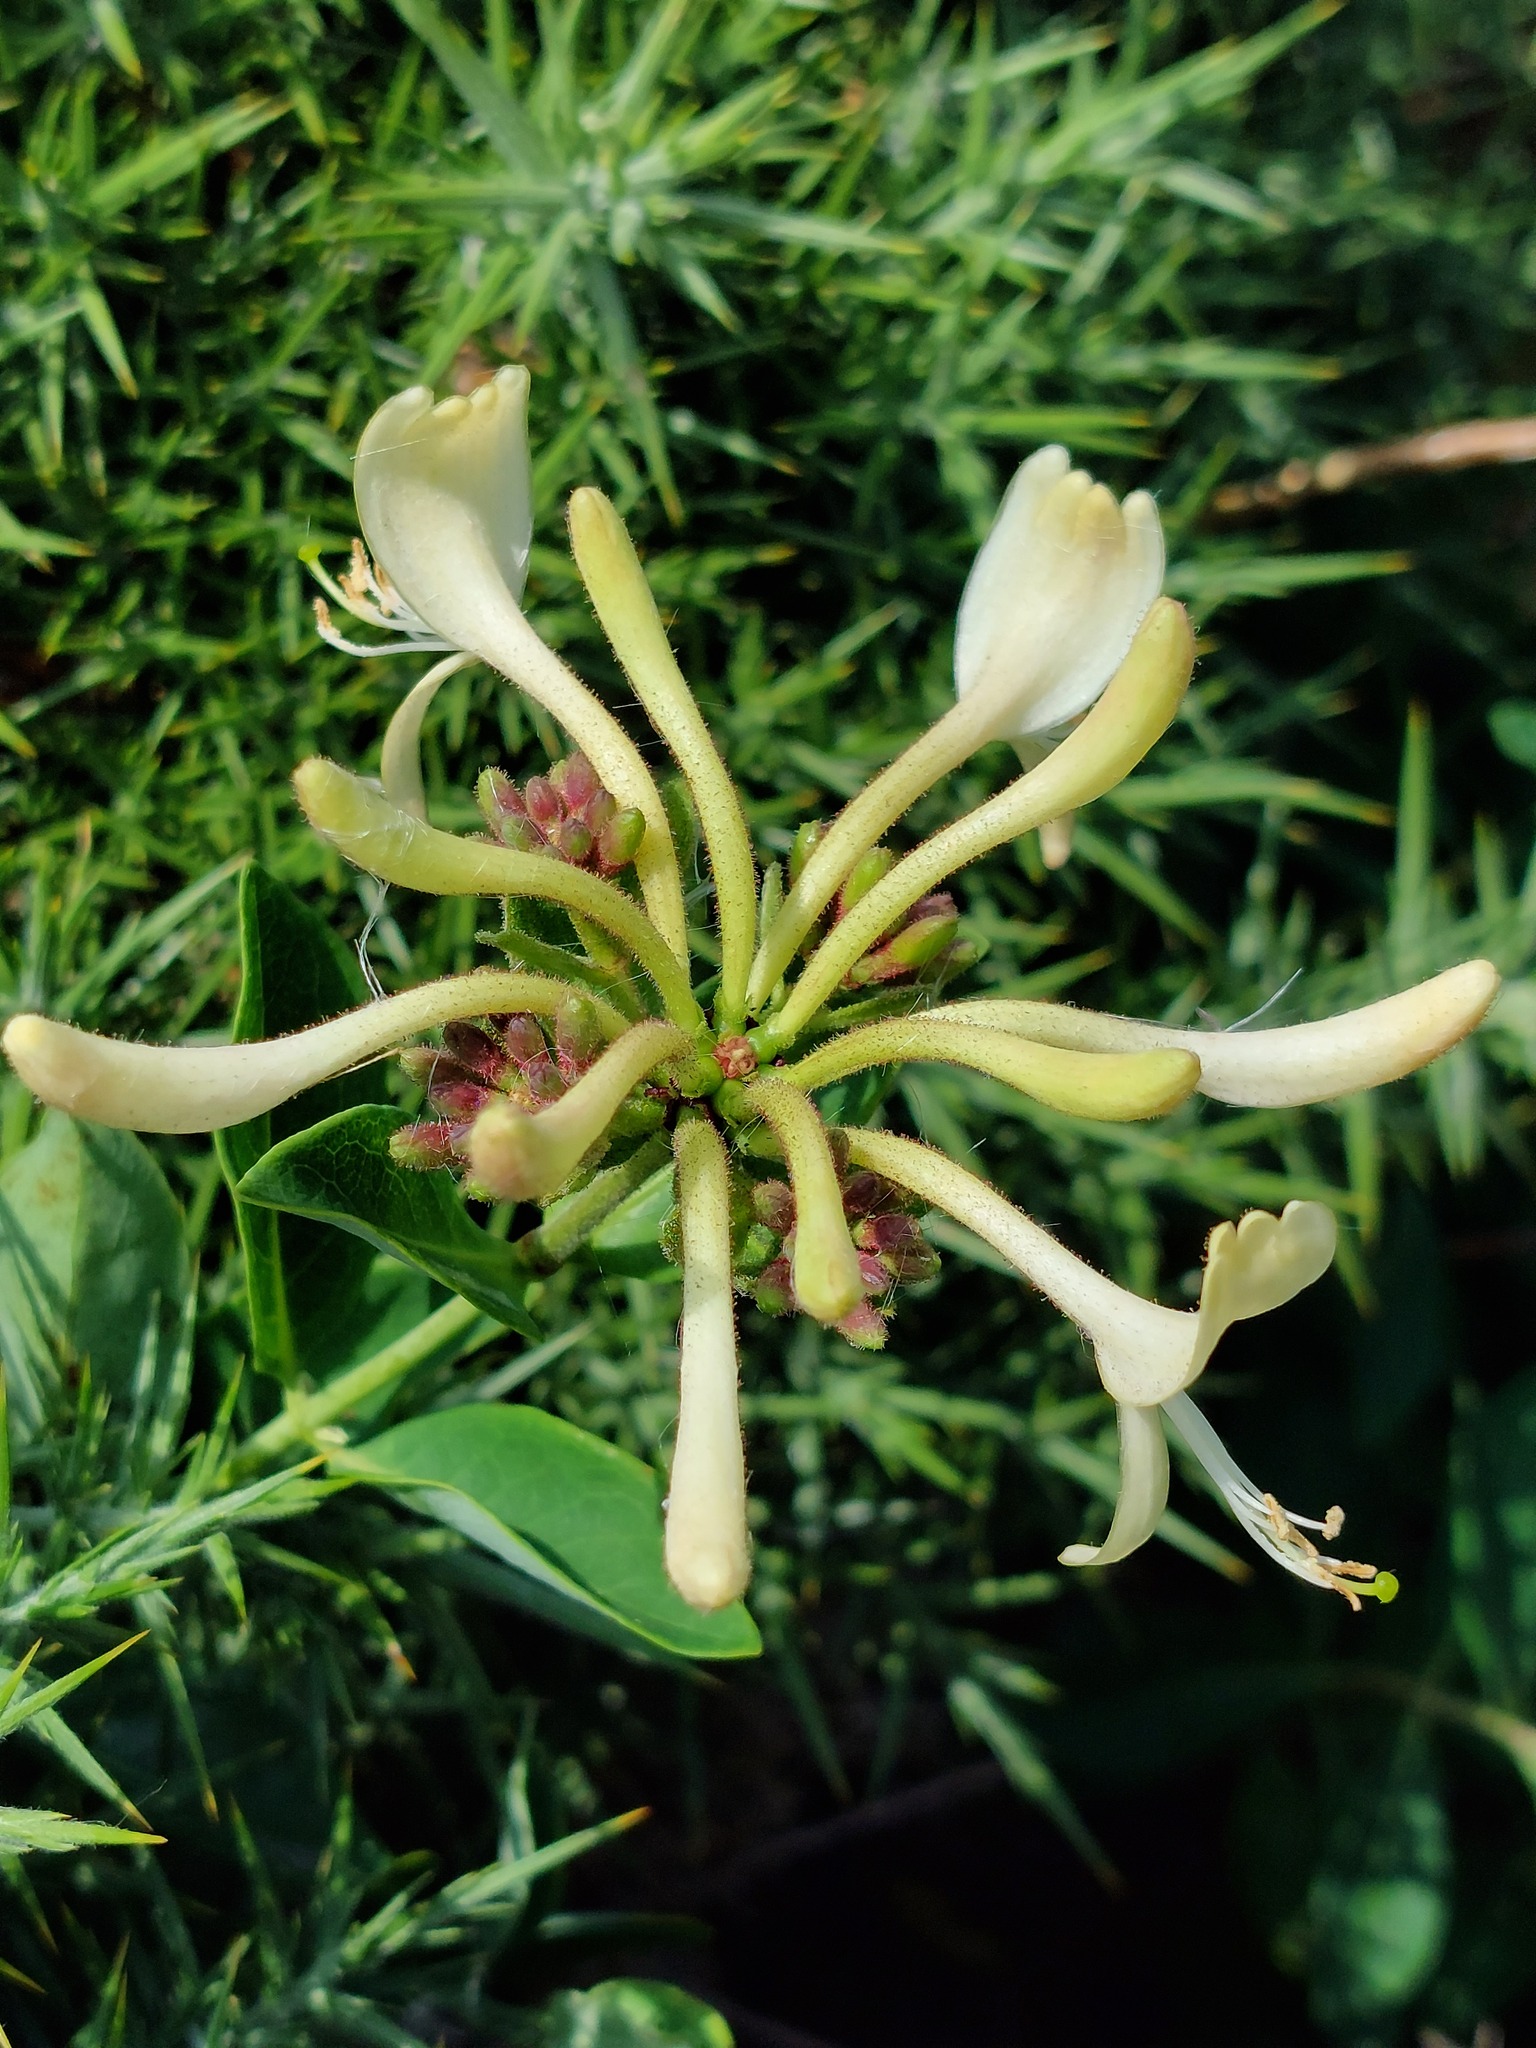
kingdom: Plantae
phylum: Tracheophyta
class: Magnoliopsida
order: Dipsacales
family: Caprifoliaceae
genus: Lonicera
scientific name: Lonicera periclymenum
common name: European honeysuckle
